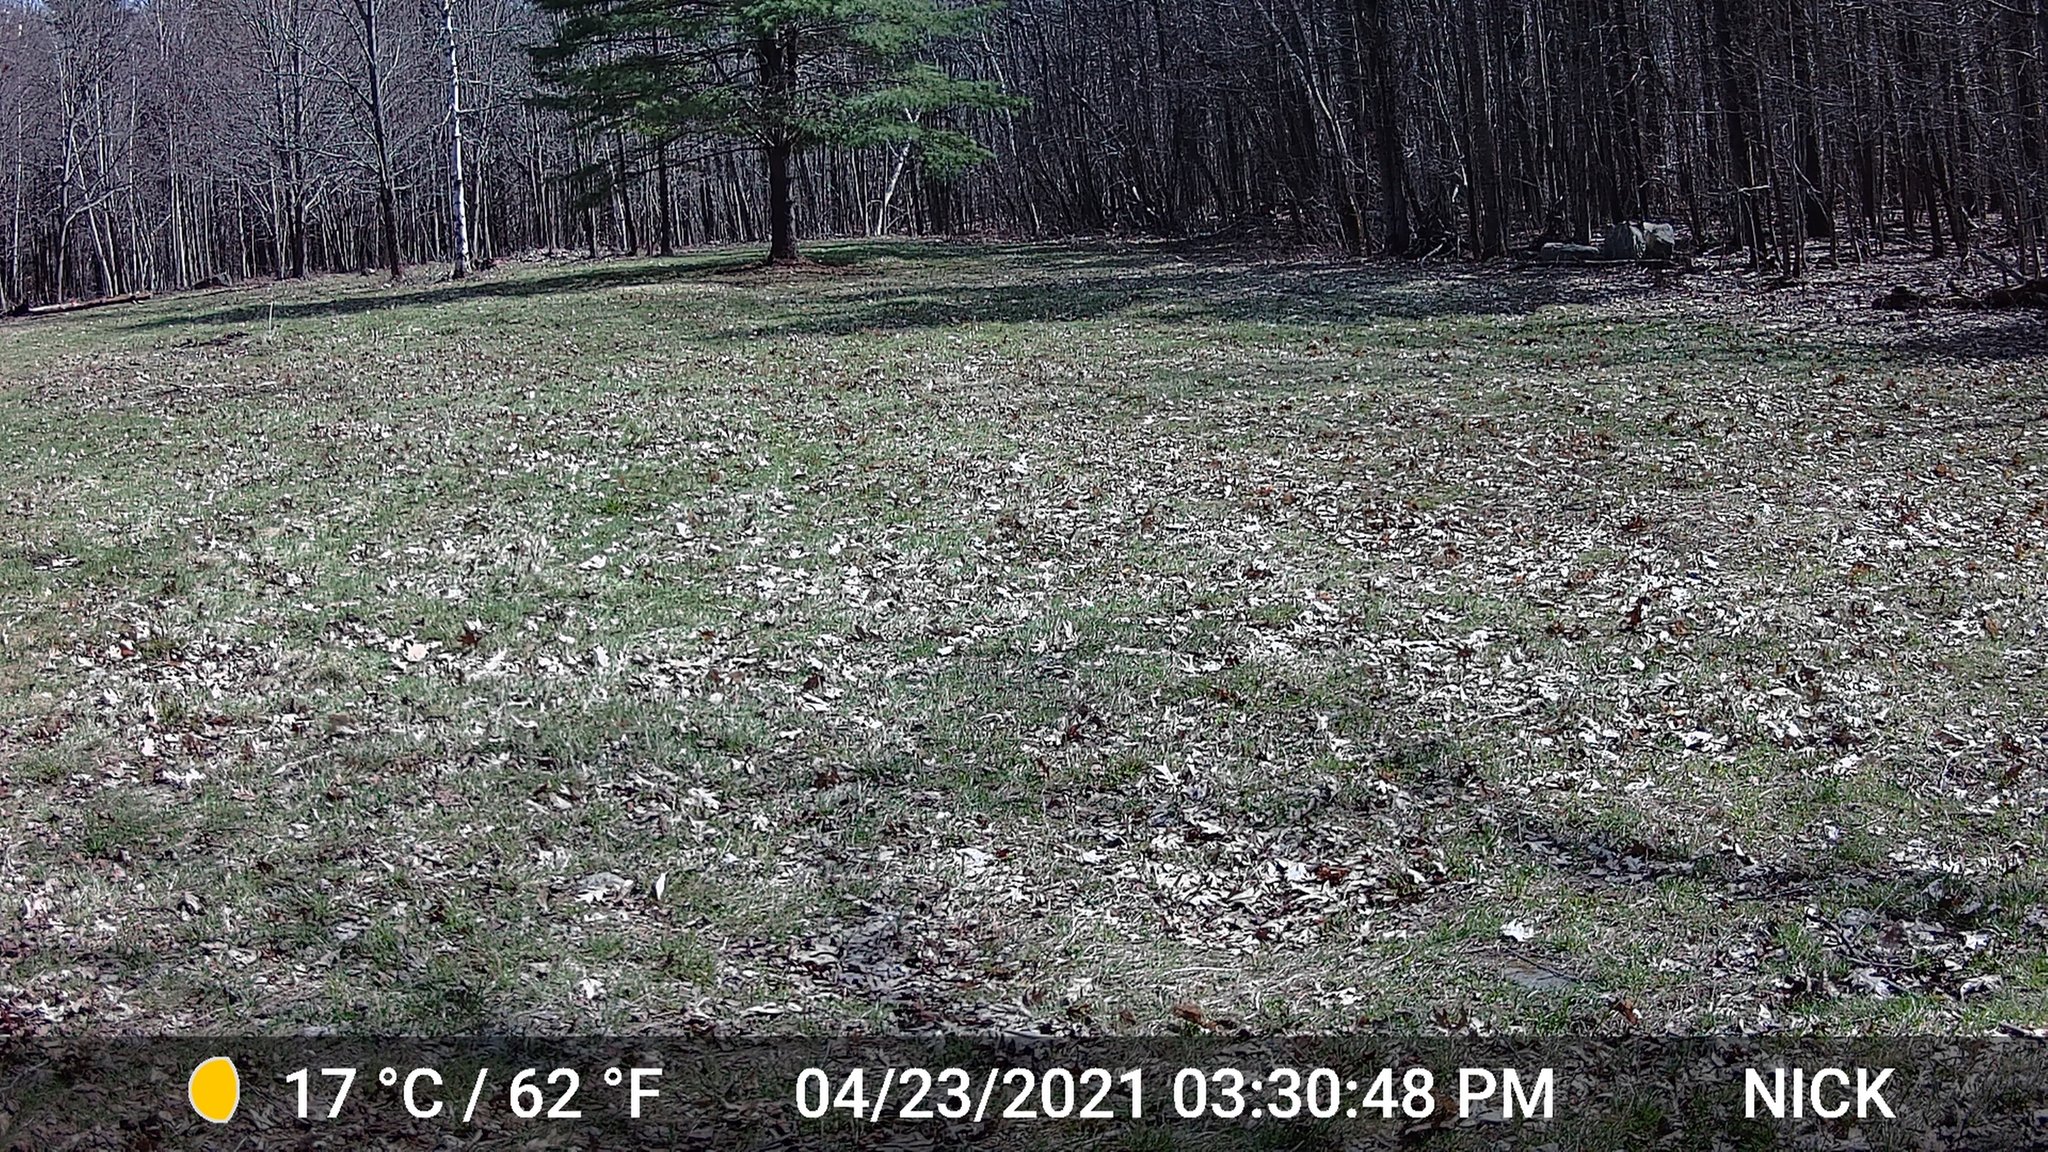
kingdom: Animalia
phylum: Chordata
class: Aves
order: Galliformes
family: Phasianidae
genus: Meleagris
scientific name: Meleagris gallopavo
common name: Wild turkey
